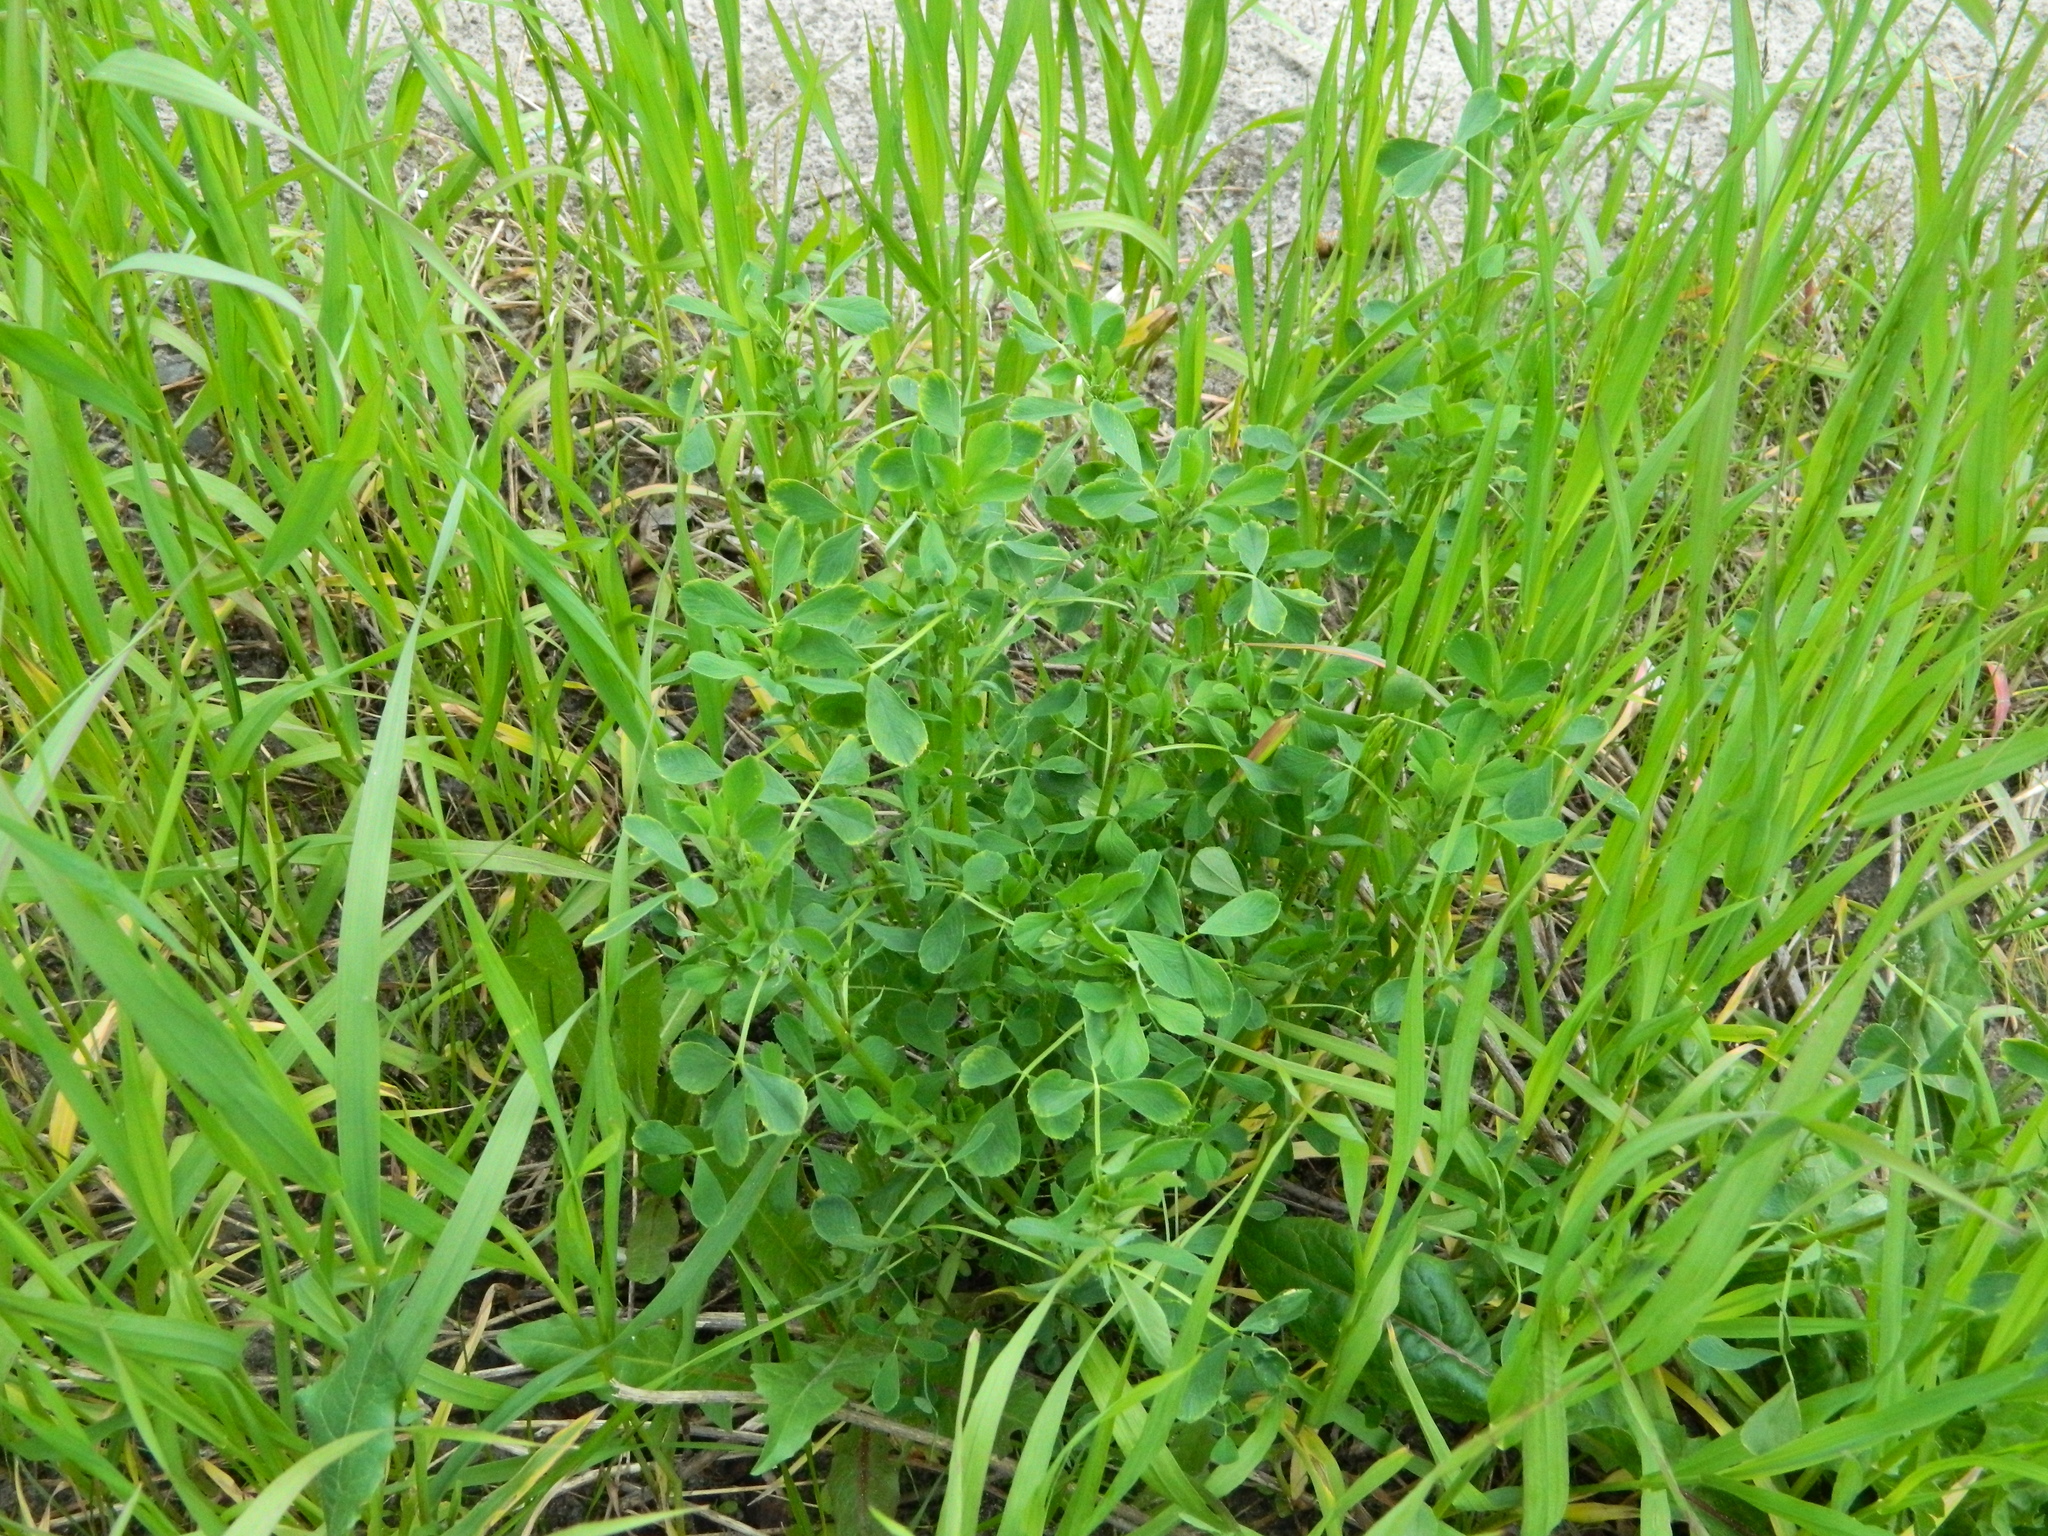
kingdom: Plantae
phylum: Tracheophyta
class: Magnoliopsida
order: Fabales
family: Fabaceae
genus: Medicago
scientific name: Medicago platycarpos
